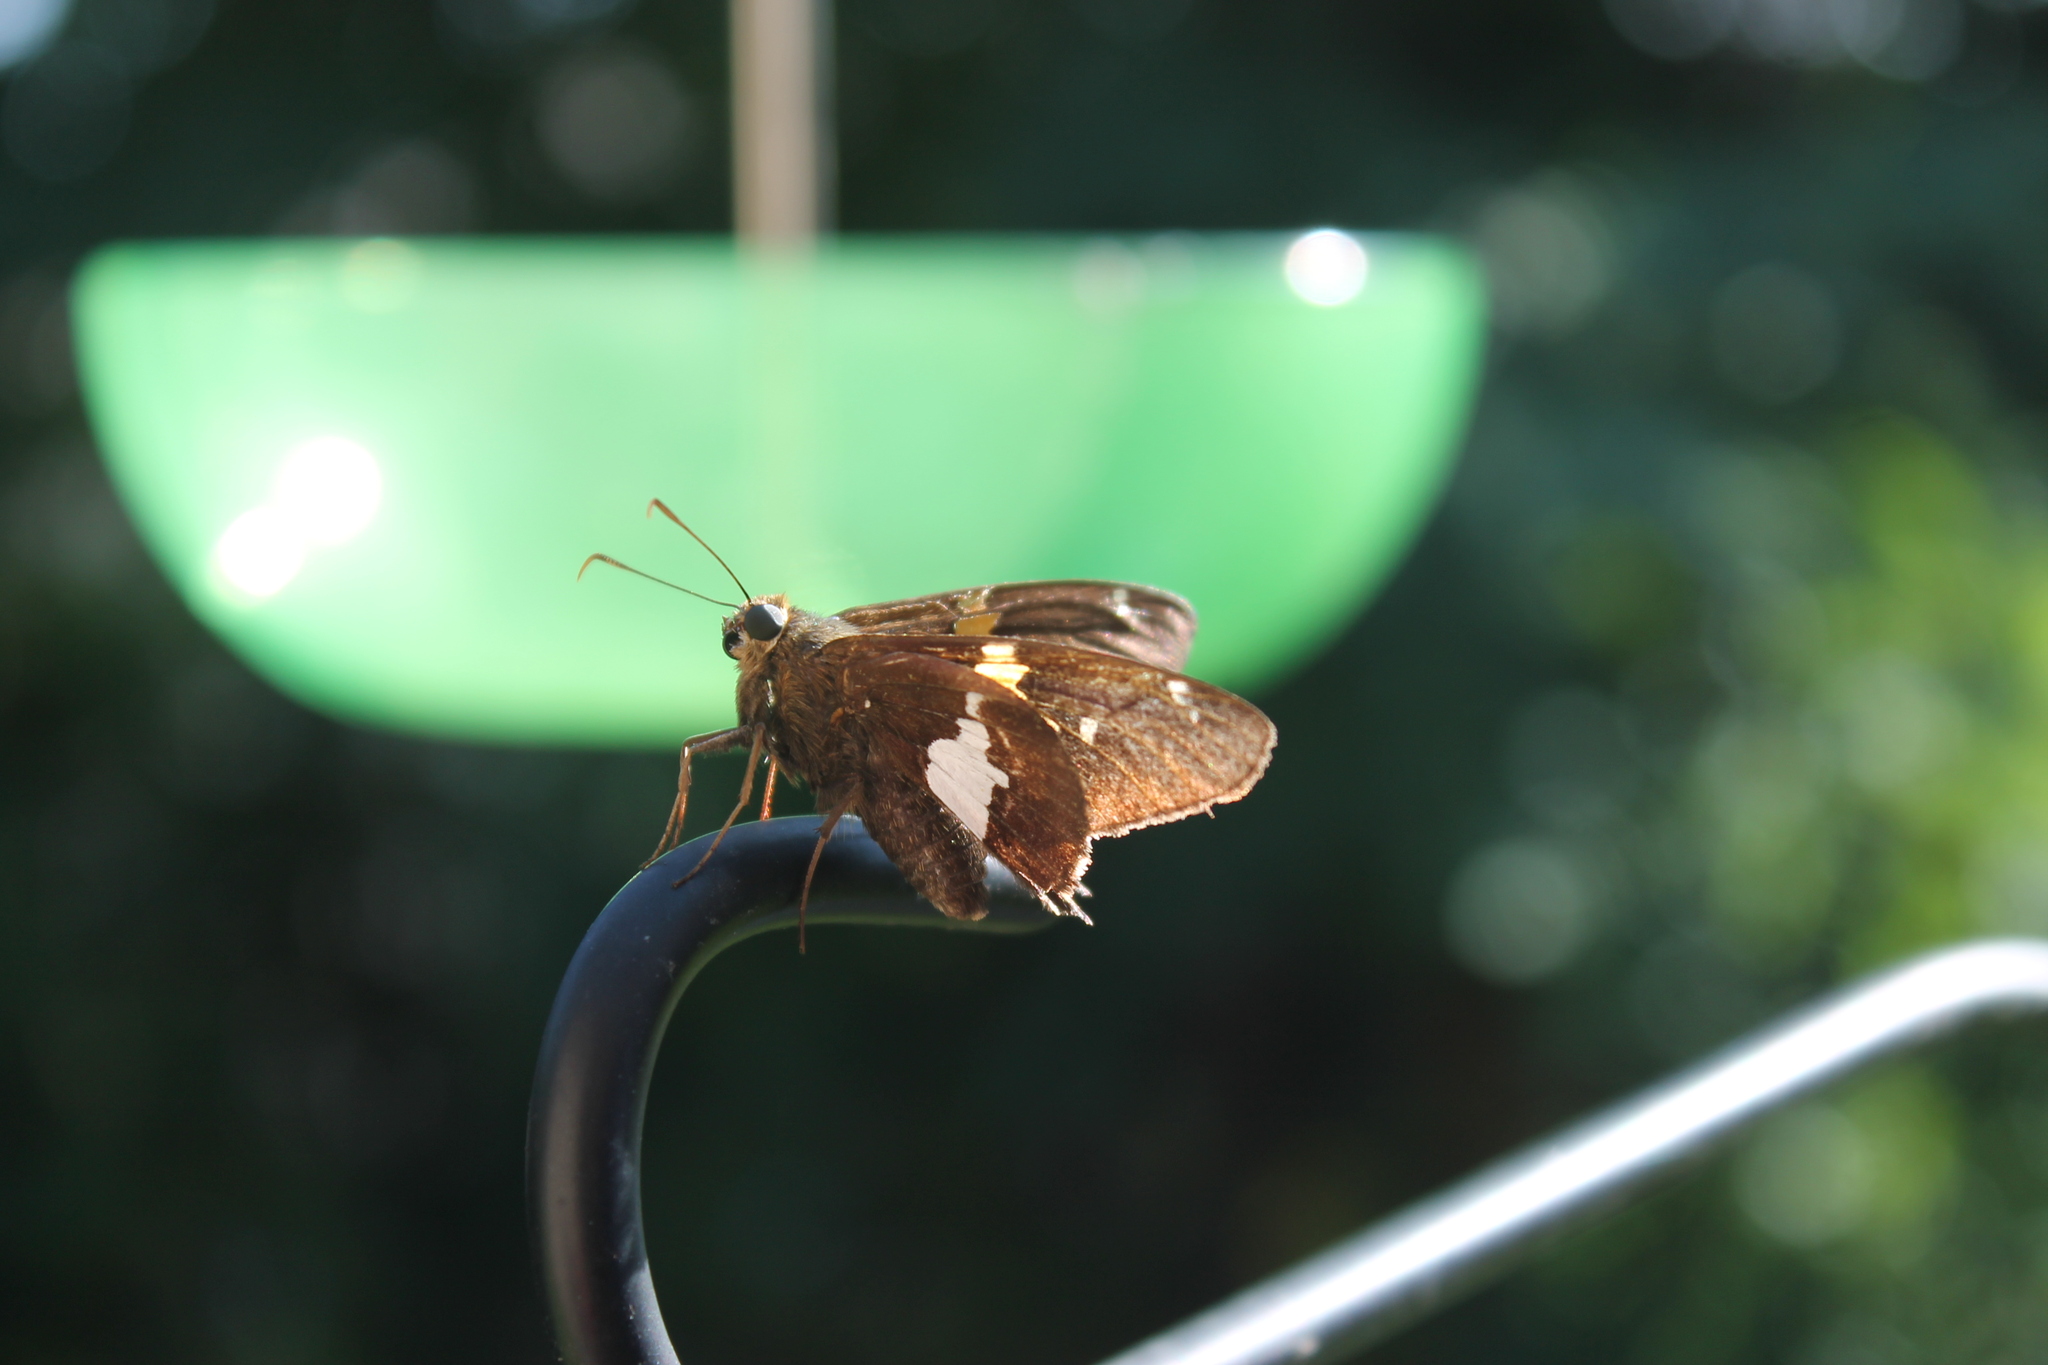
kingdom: Animalia
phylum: Arthropoda
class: Insecta
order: Lepidoptera
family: Hesperiidae
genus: Epargyreus
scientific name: Epargyreus clarus
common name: Silver-spotted skipper
